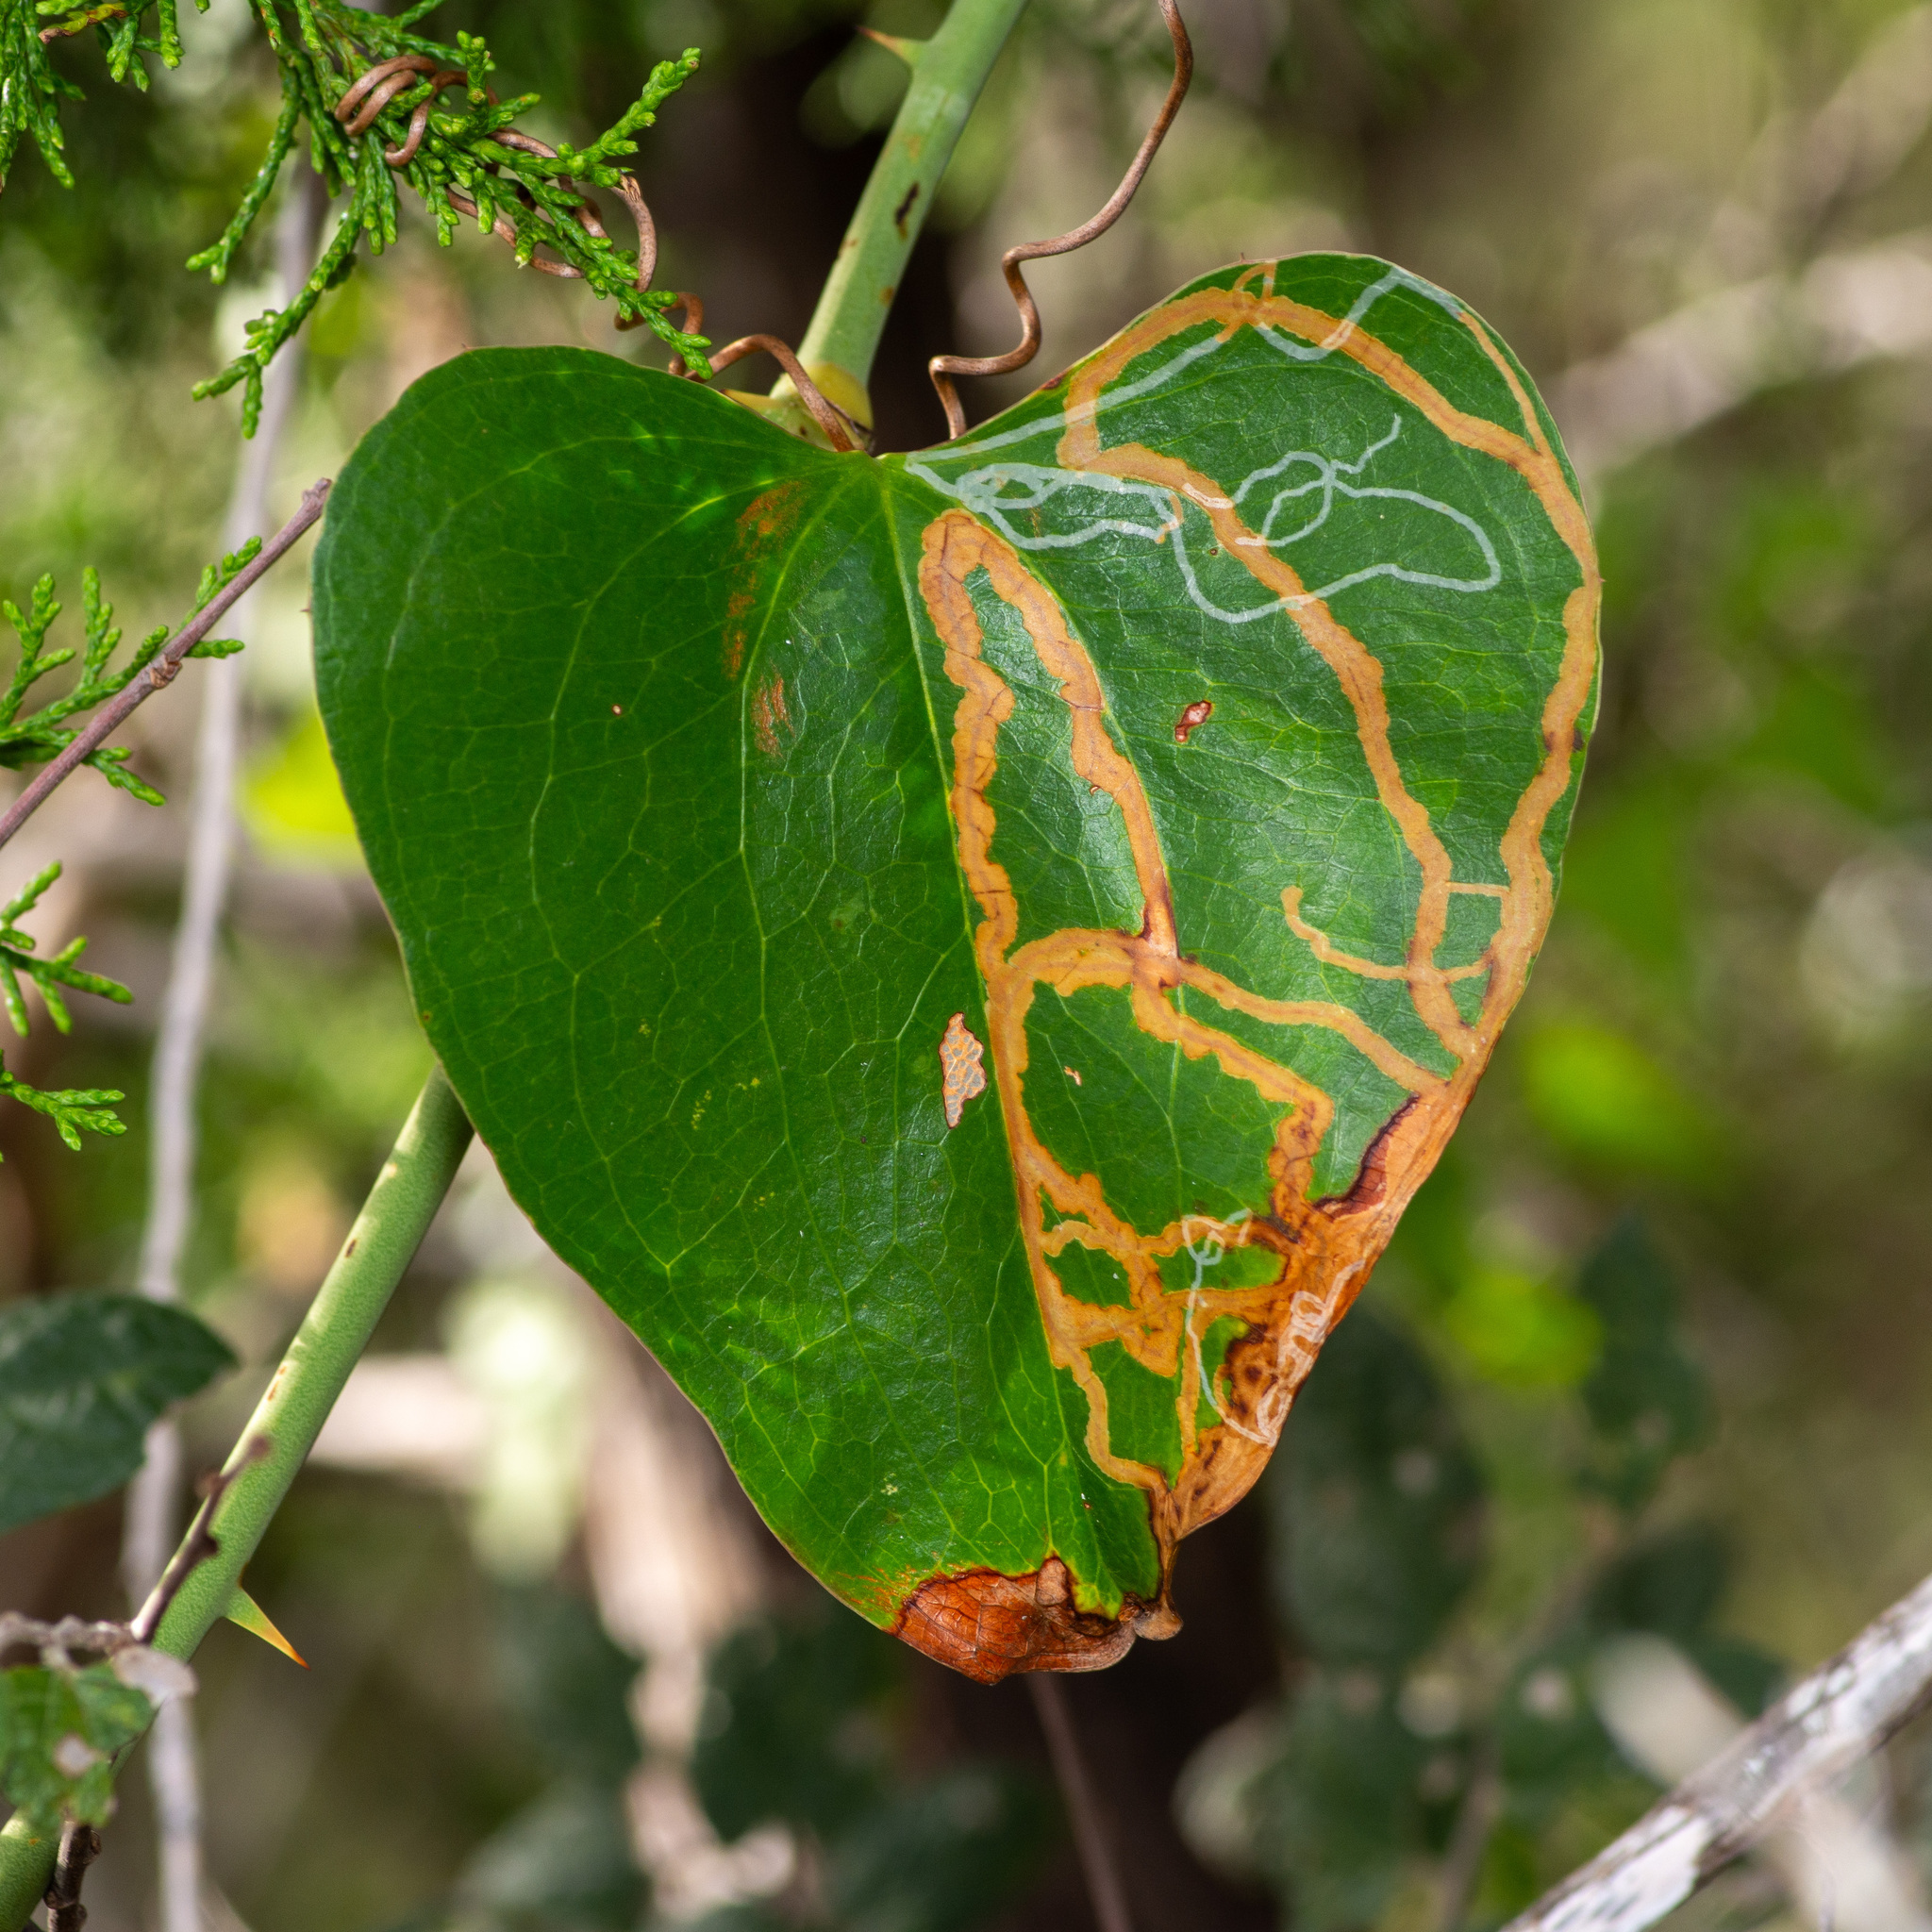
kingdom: Animalia
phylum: Arthropoda
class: Insecta
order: Lepidoptera
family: Gracillariidae
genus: Marmara
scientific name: Marmara smilacisella
